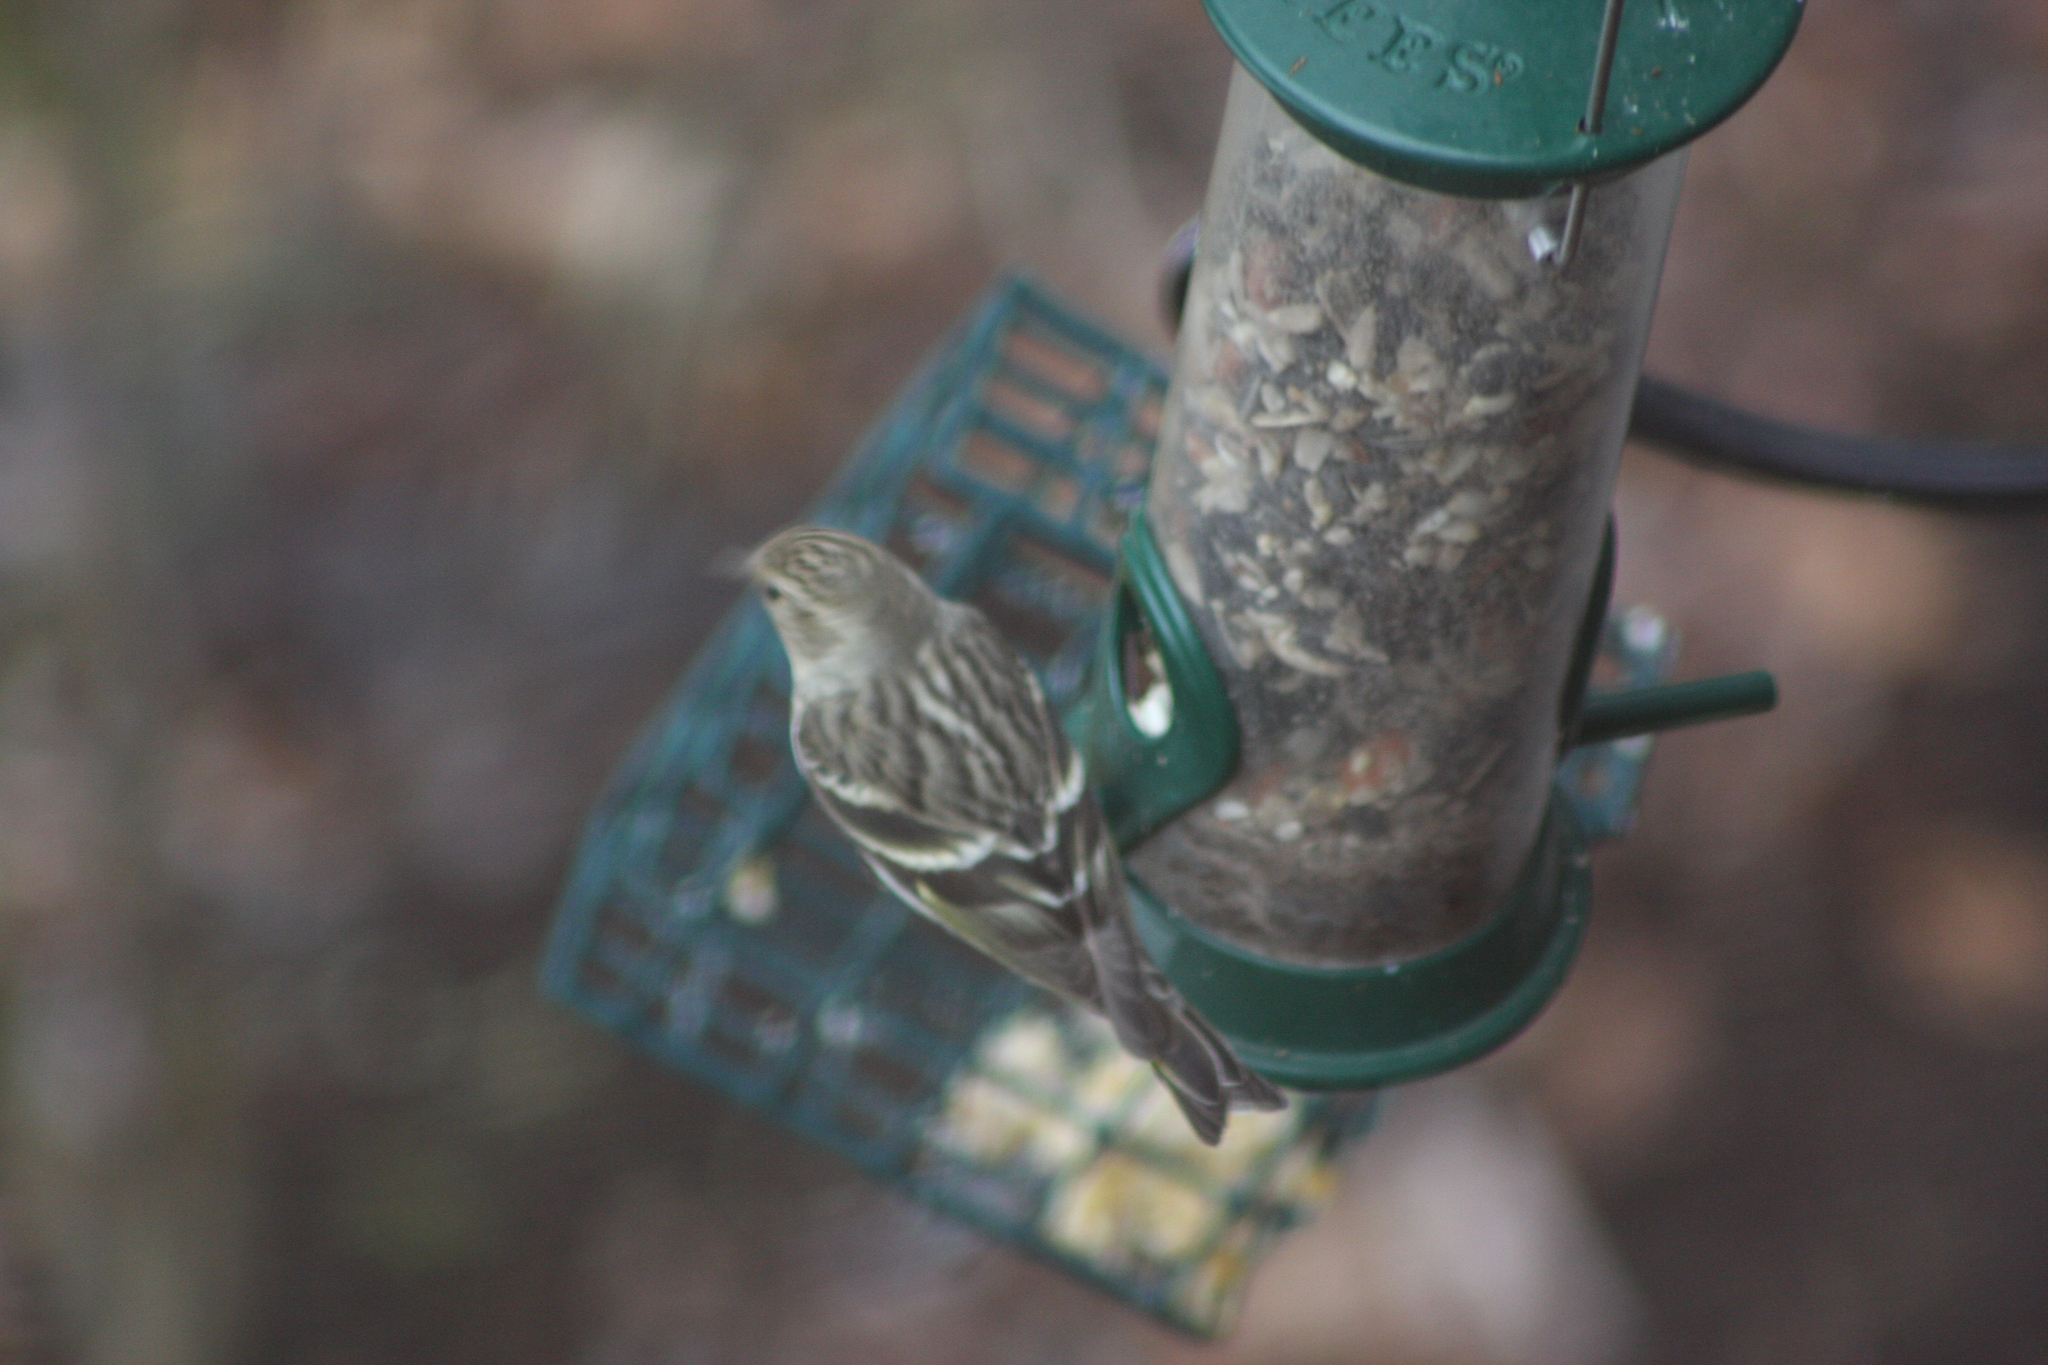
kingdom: Animalia
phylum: Chordata
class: Aves
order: Passeriformes
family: Fringillidae
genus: Spinus
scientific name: Spinus pinus
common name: Pine siskin
